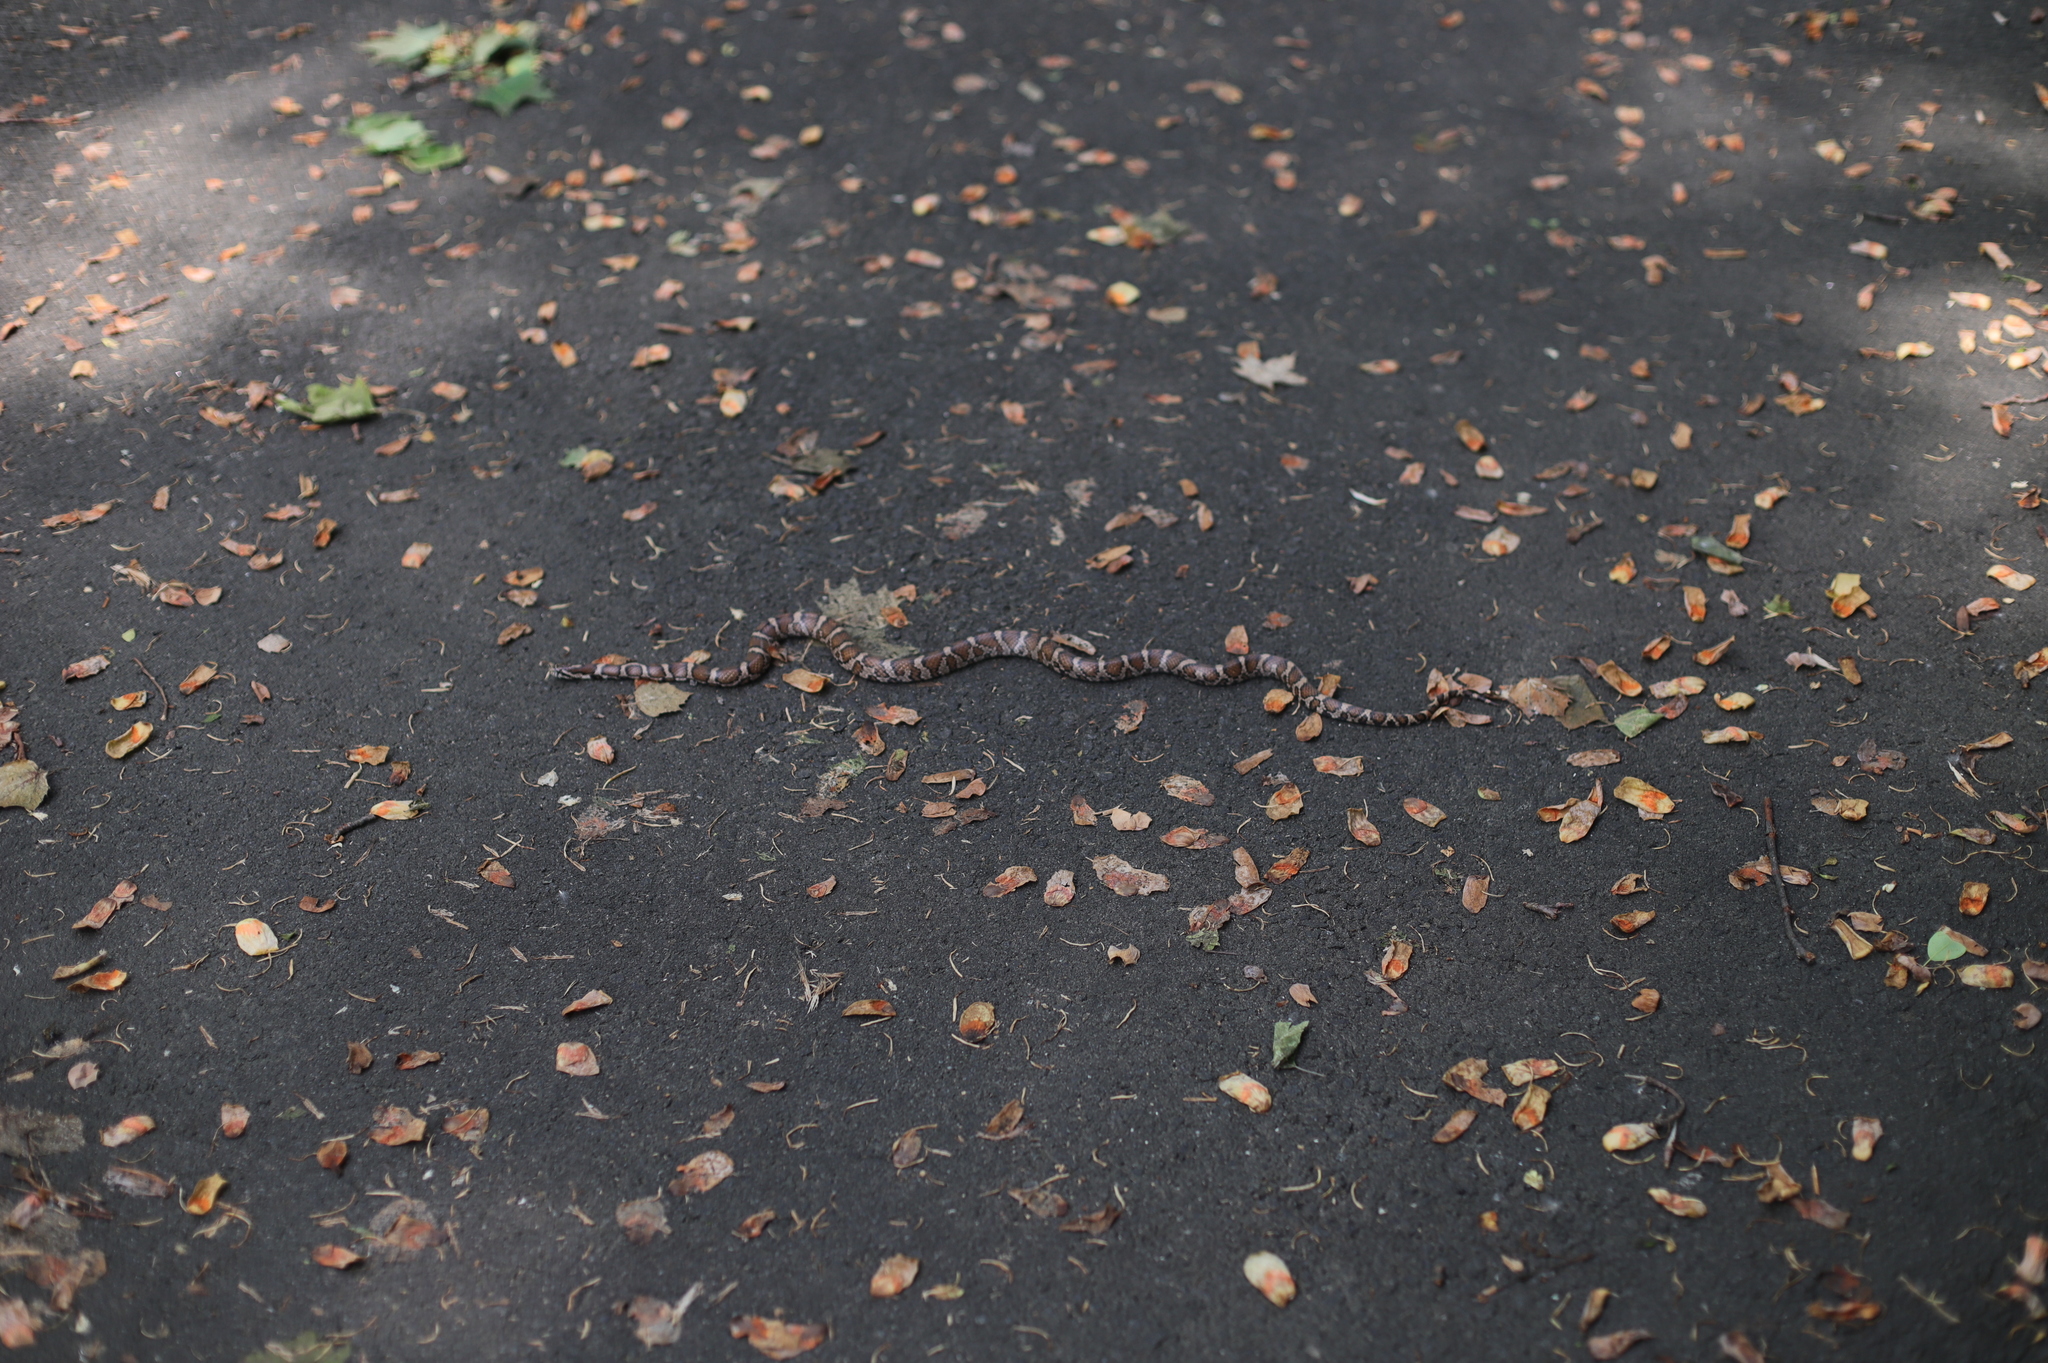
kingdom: Animalia
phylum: Chordata
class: Squamata
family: Colubridae
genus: Lampropeltis
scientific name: Lampropeltis triangulum
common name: Eastern milksnake
